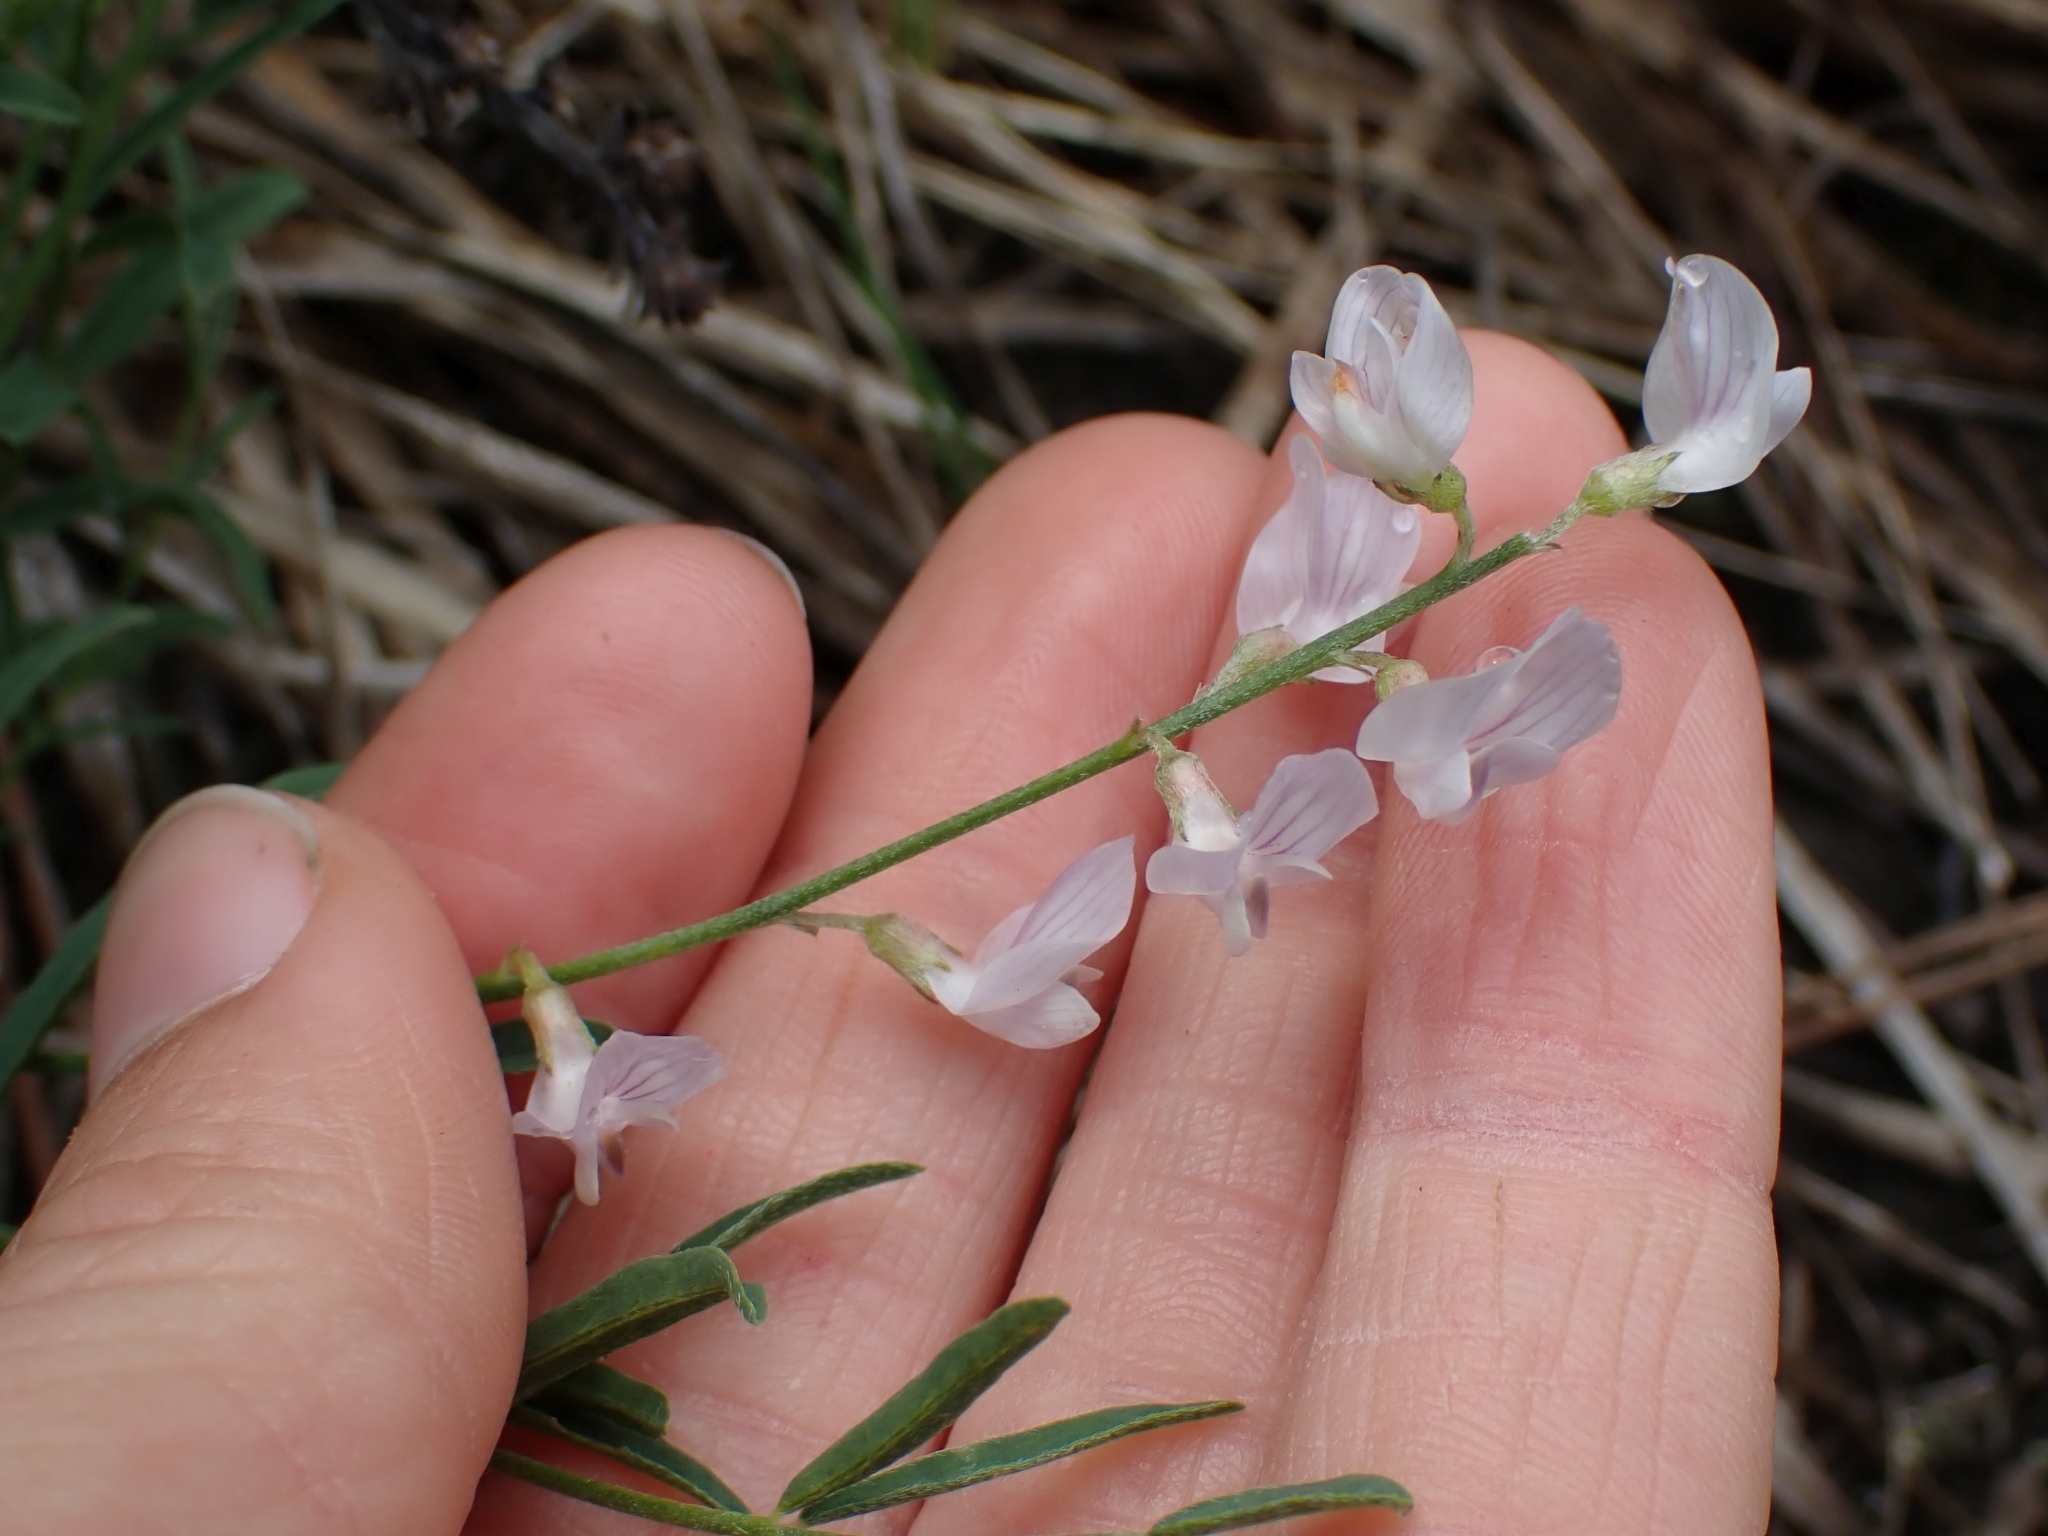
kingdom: Plantae
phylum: Tracheophyta
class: Magnoliopsida
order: Fabales
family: Fabaceae
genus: Astragalus
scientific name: Astragalus miser
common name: Timber milkvetch
